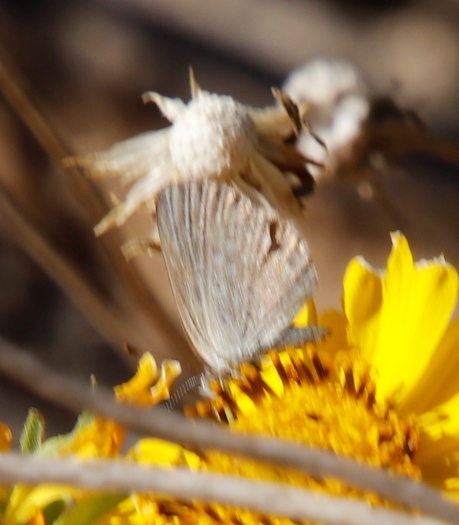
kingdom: Animalia
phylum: Arthropoda
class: Insecta
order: Lepidoptera
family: Lycaenidae
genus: Zizeeria
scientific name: Zizeeria knysna
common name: African grass blue
